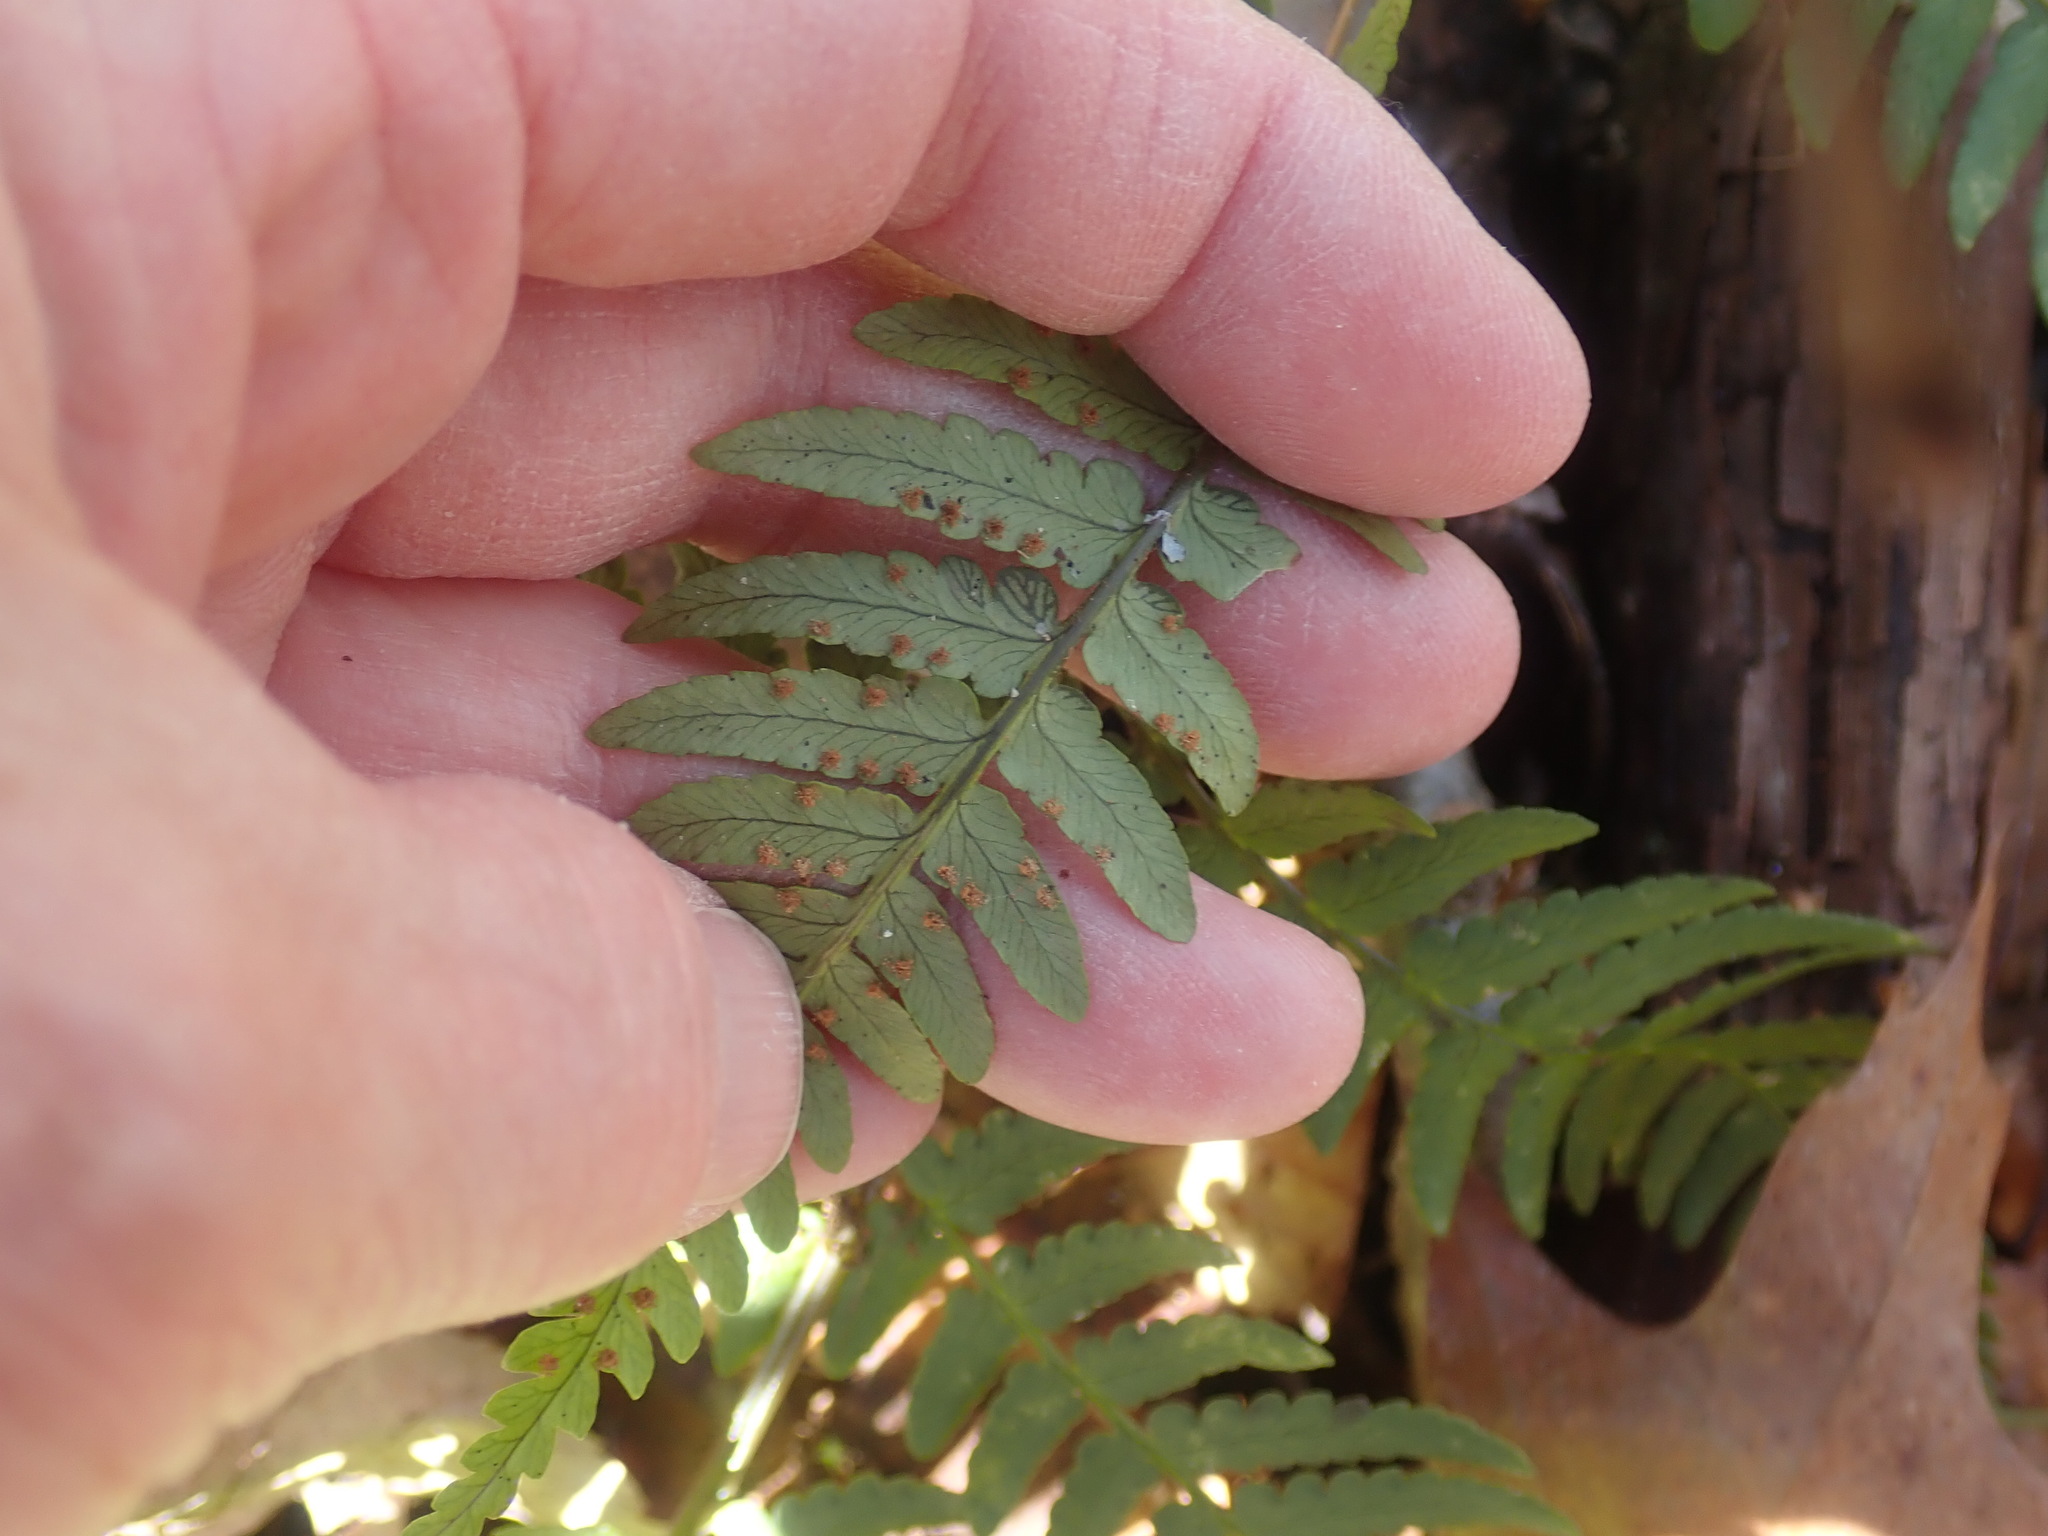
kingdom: Plantae
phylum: Tracheophyta
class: Polypodiopsida
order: Polypodiales
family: Dryopteridaceae
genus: Dryopteris
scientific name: Dryopteris marginalis
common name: Marginal wood fern
